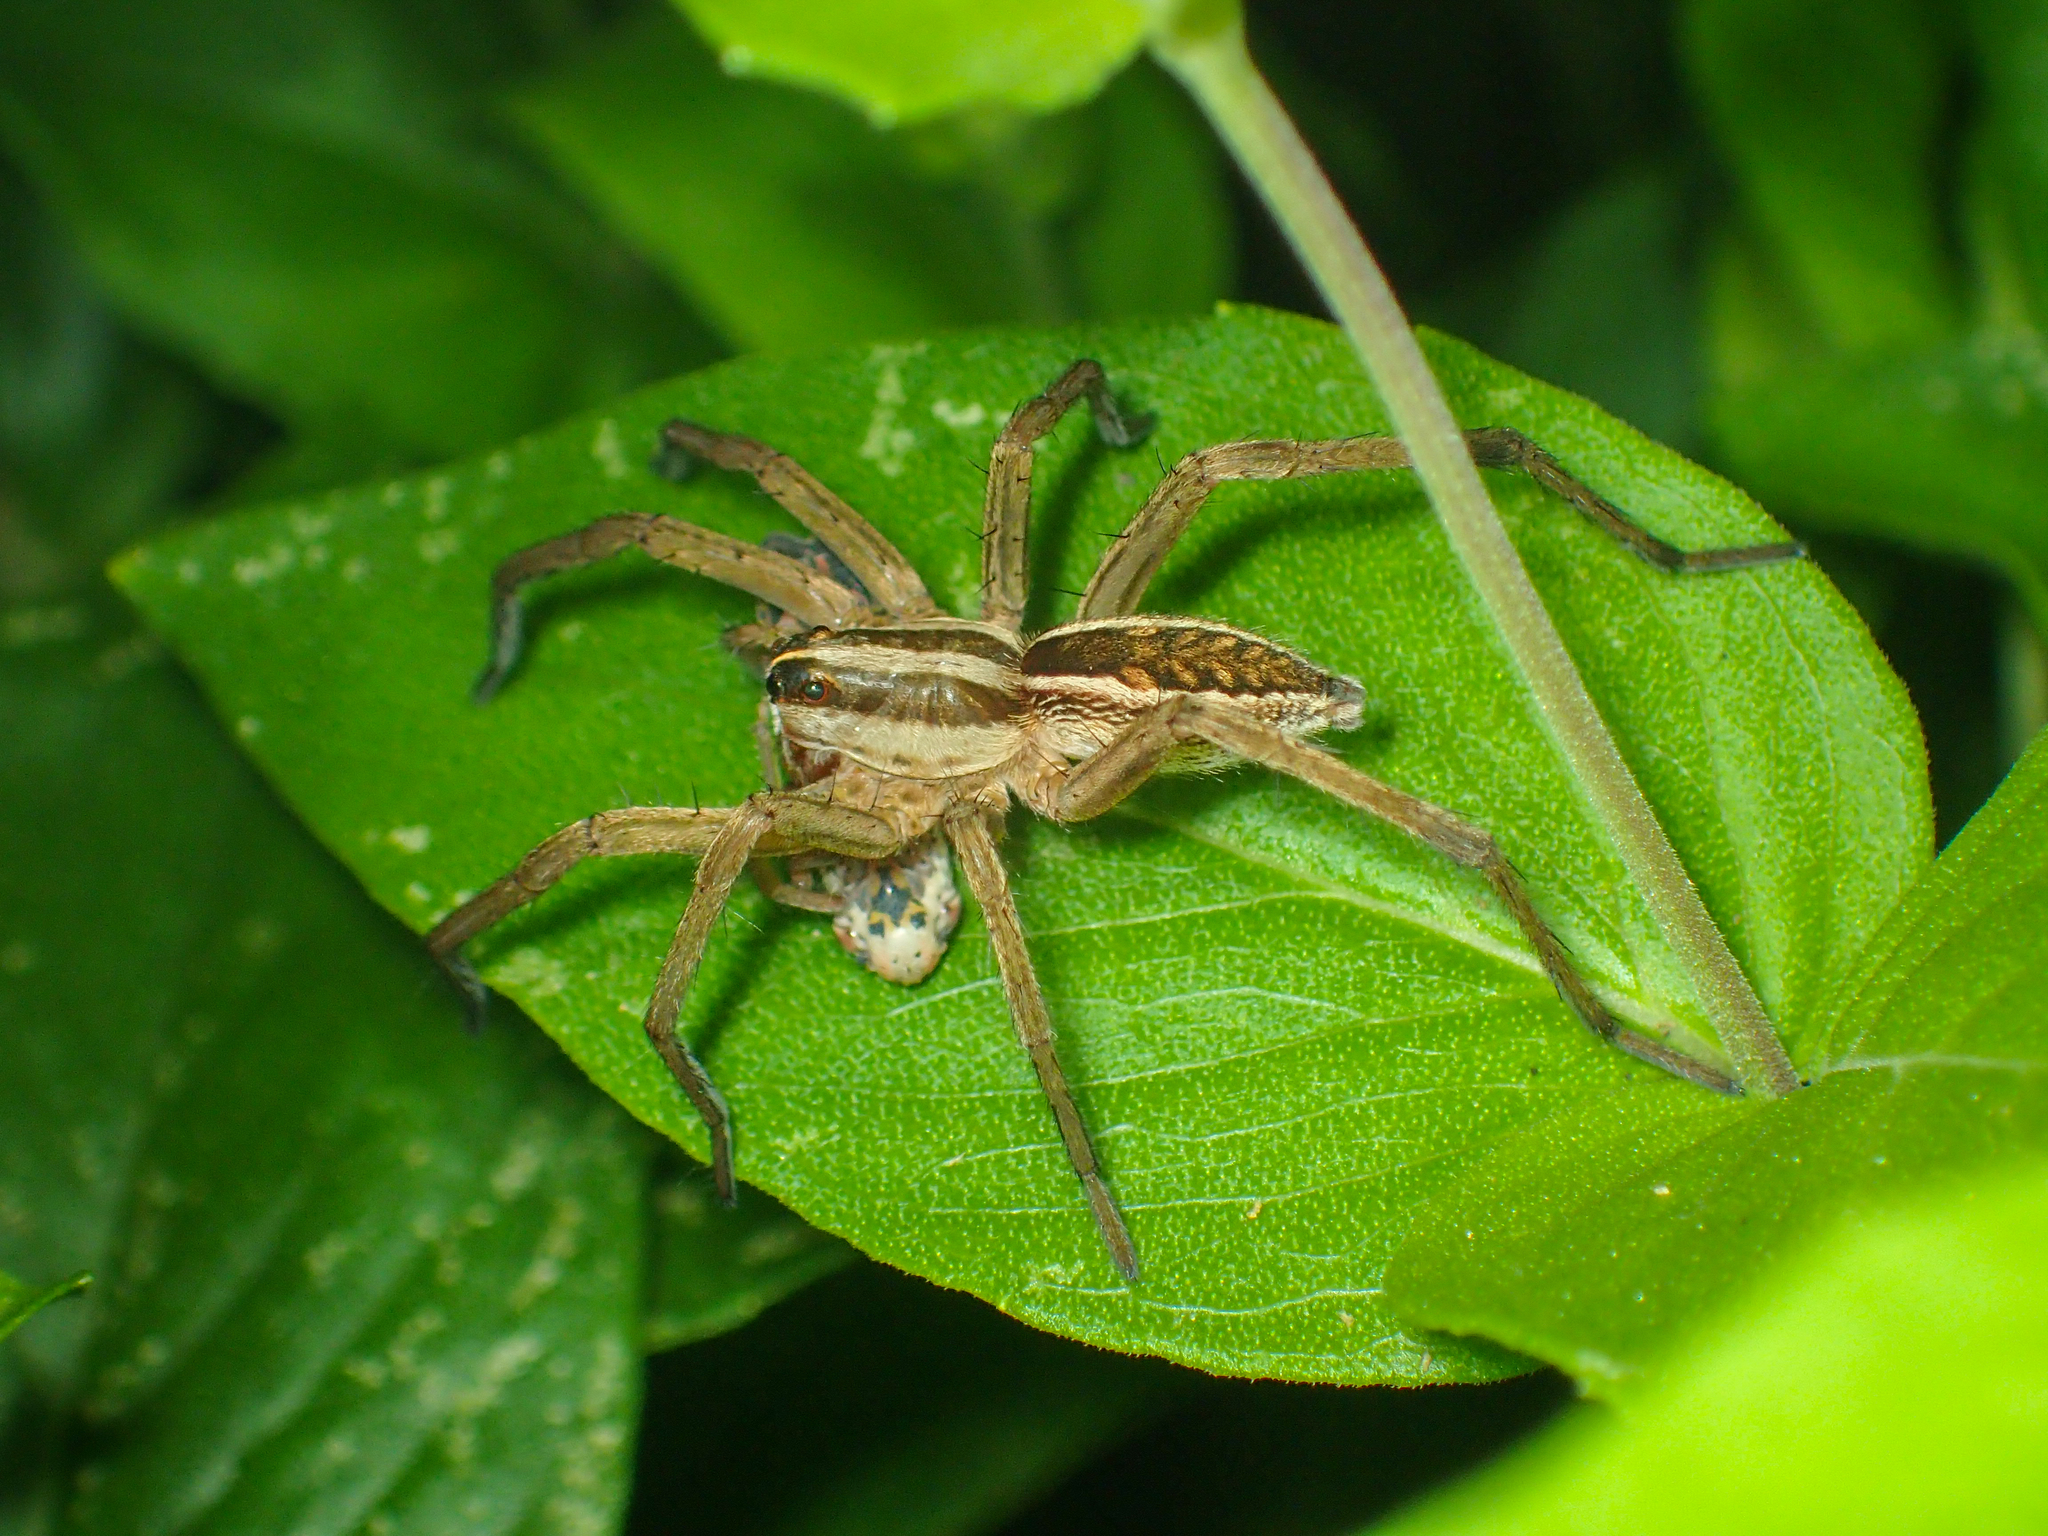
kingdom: Animalia
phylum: Arthropoda
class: Arachnida
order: Araneae
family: Lycosidae
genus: Rabidosa
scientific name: Rabidosa rabida
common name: Rabid wolf spider
